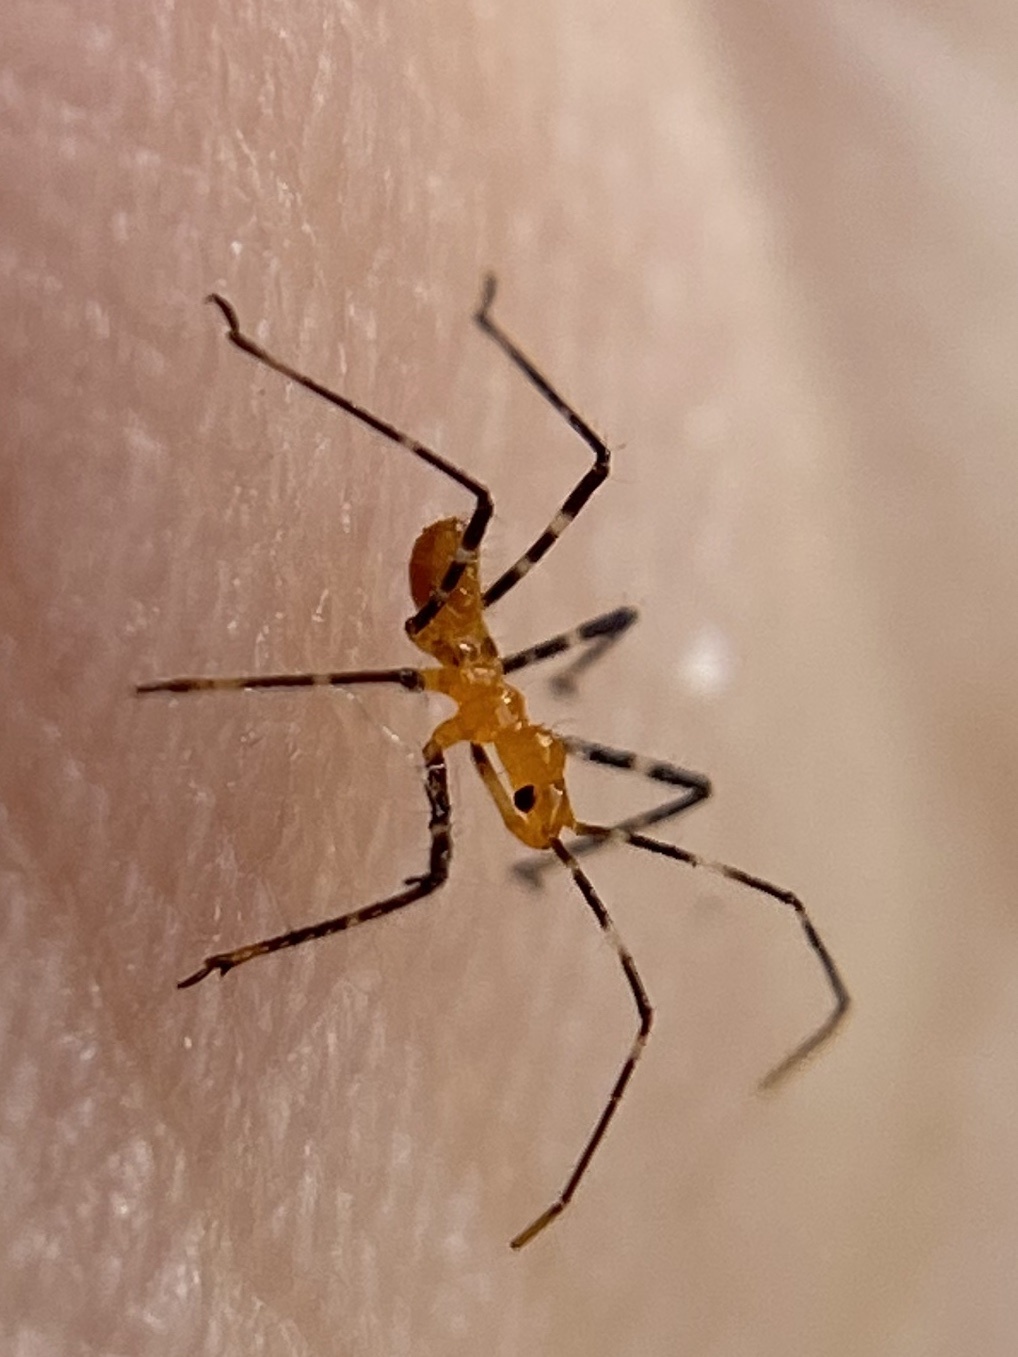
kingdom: Animalia
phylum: Arthropoda
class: Insecta
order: Hemiptera
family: Reduviidae
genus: Zelus
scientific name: Zelus longipes
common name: Milkweed assassin bug
